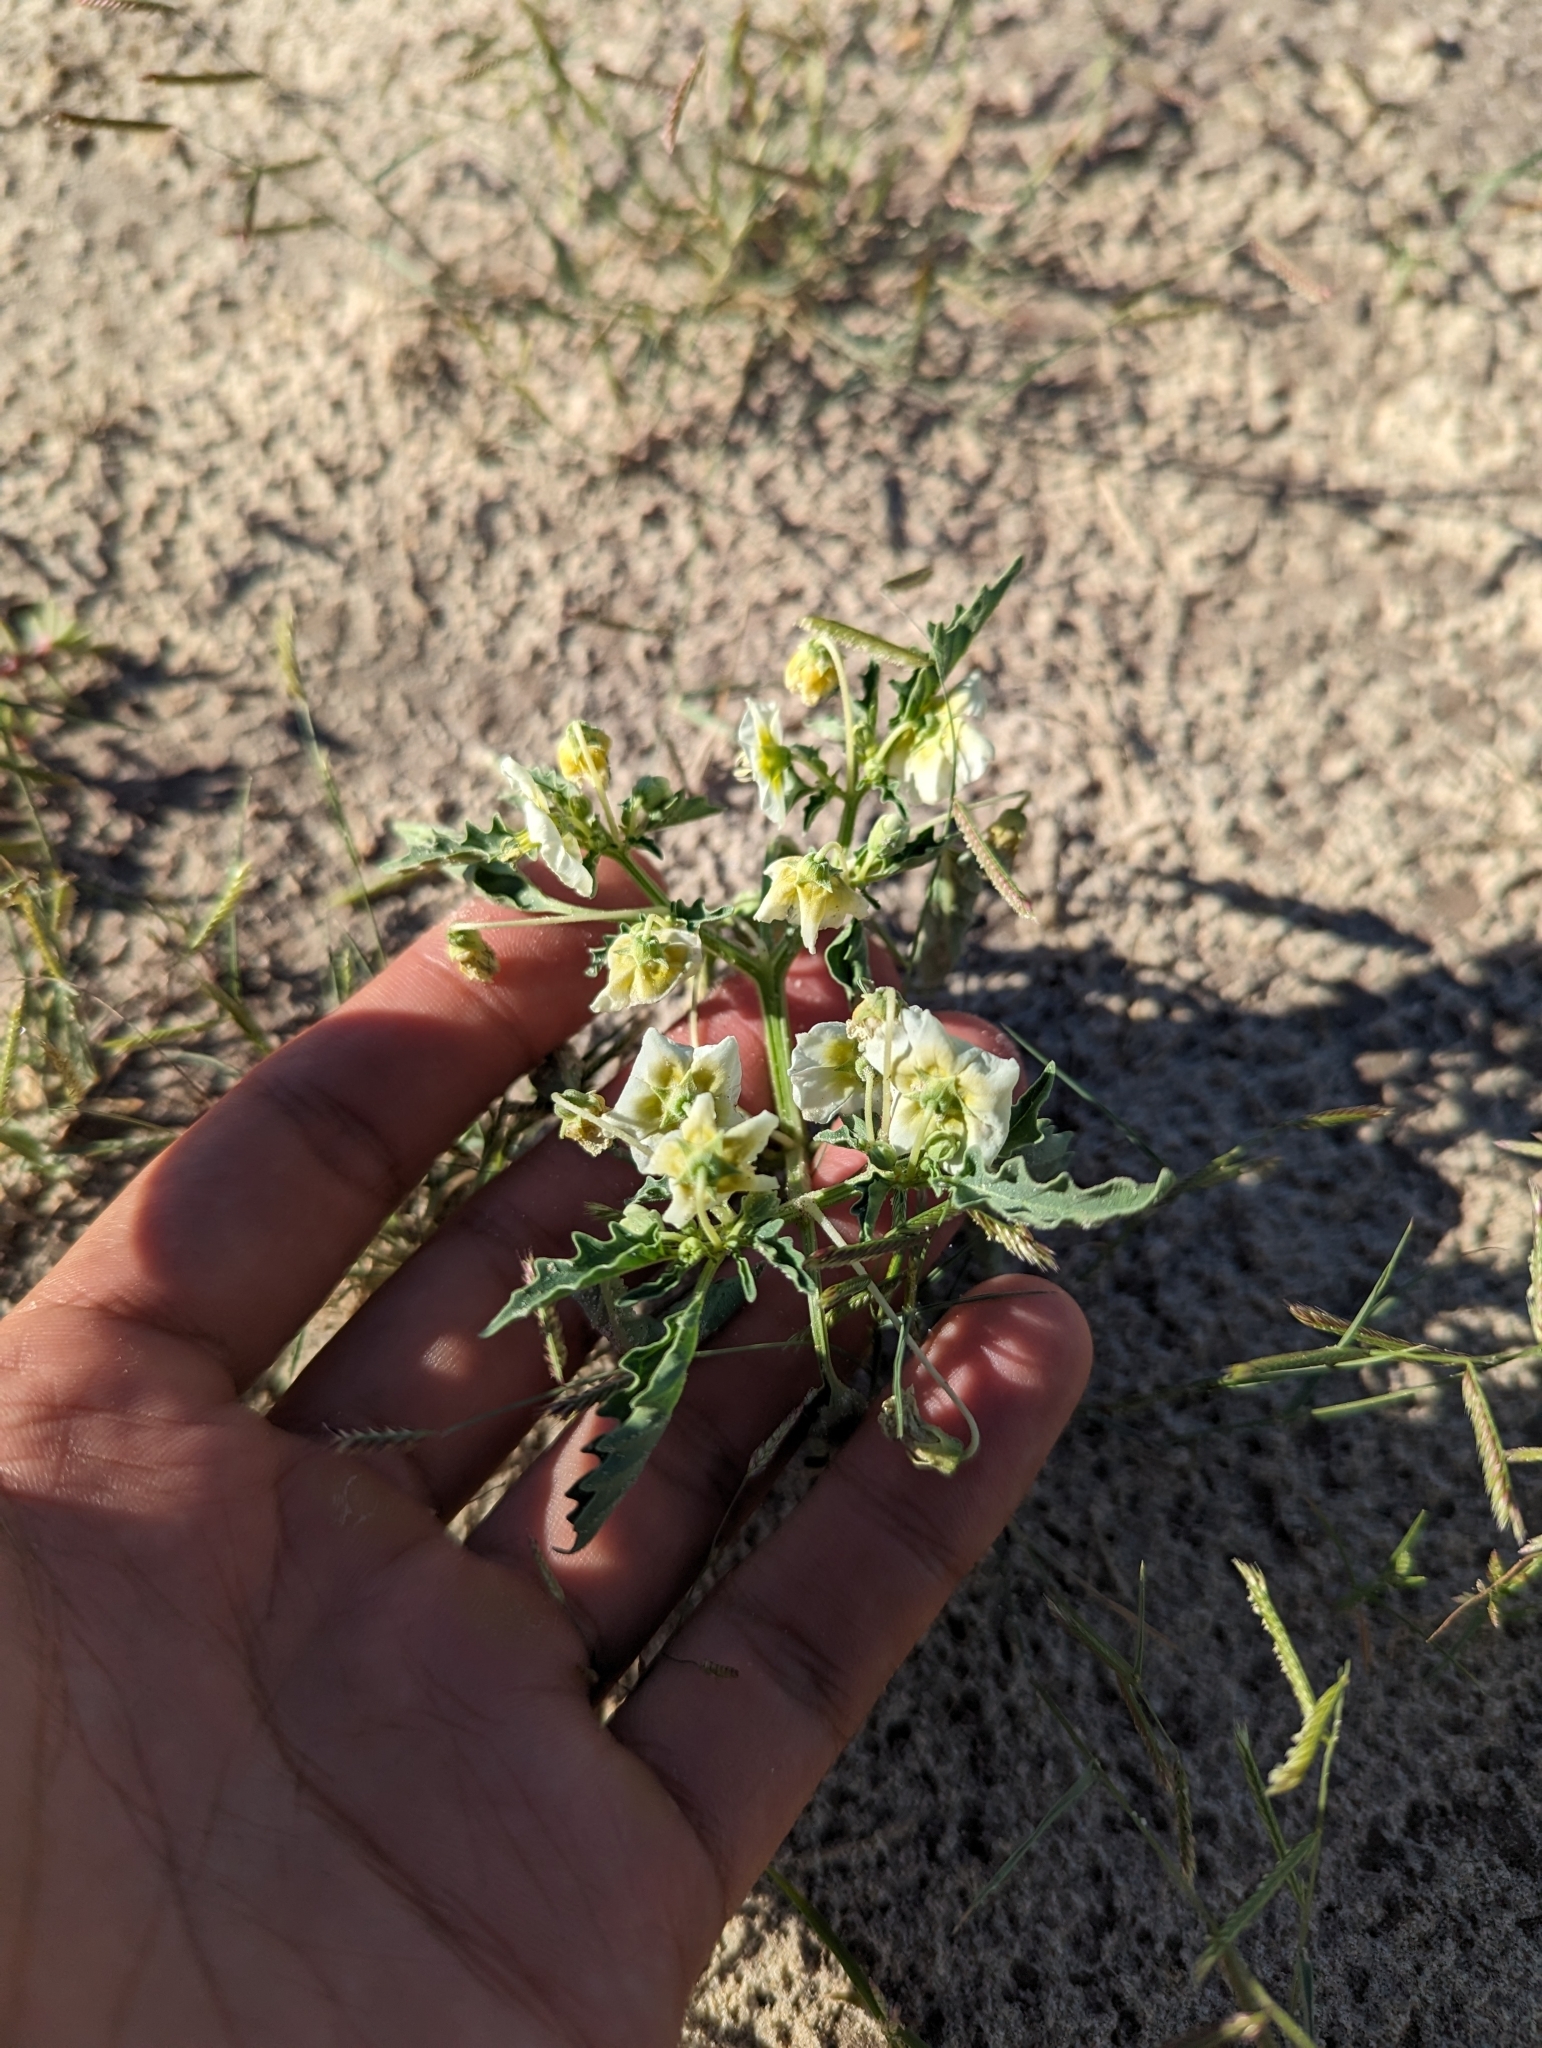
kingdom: Plantae
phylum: Tracheophyta
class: Magnoliopsida
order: Solanales
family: Solanaceae
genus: Physalis
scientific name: Physalis acutifolia
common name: Wright's ground-cherry
